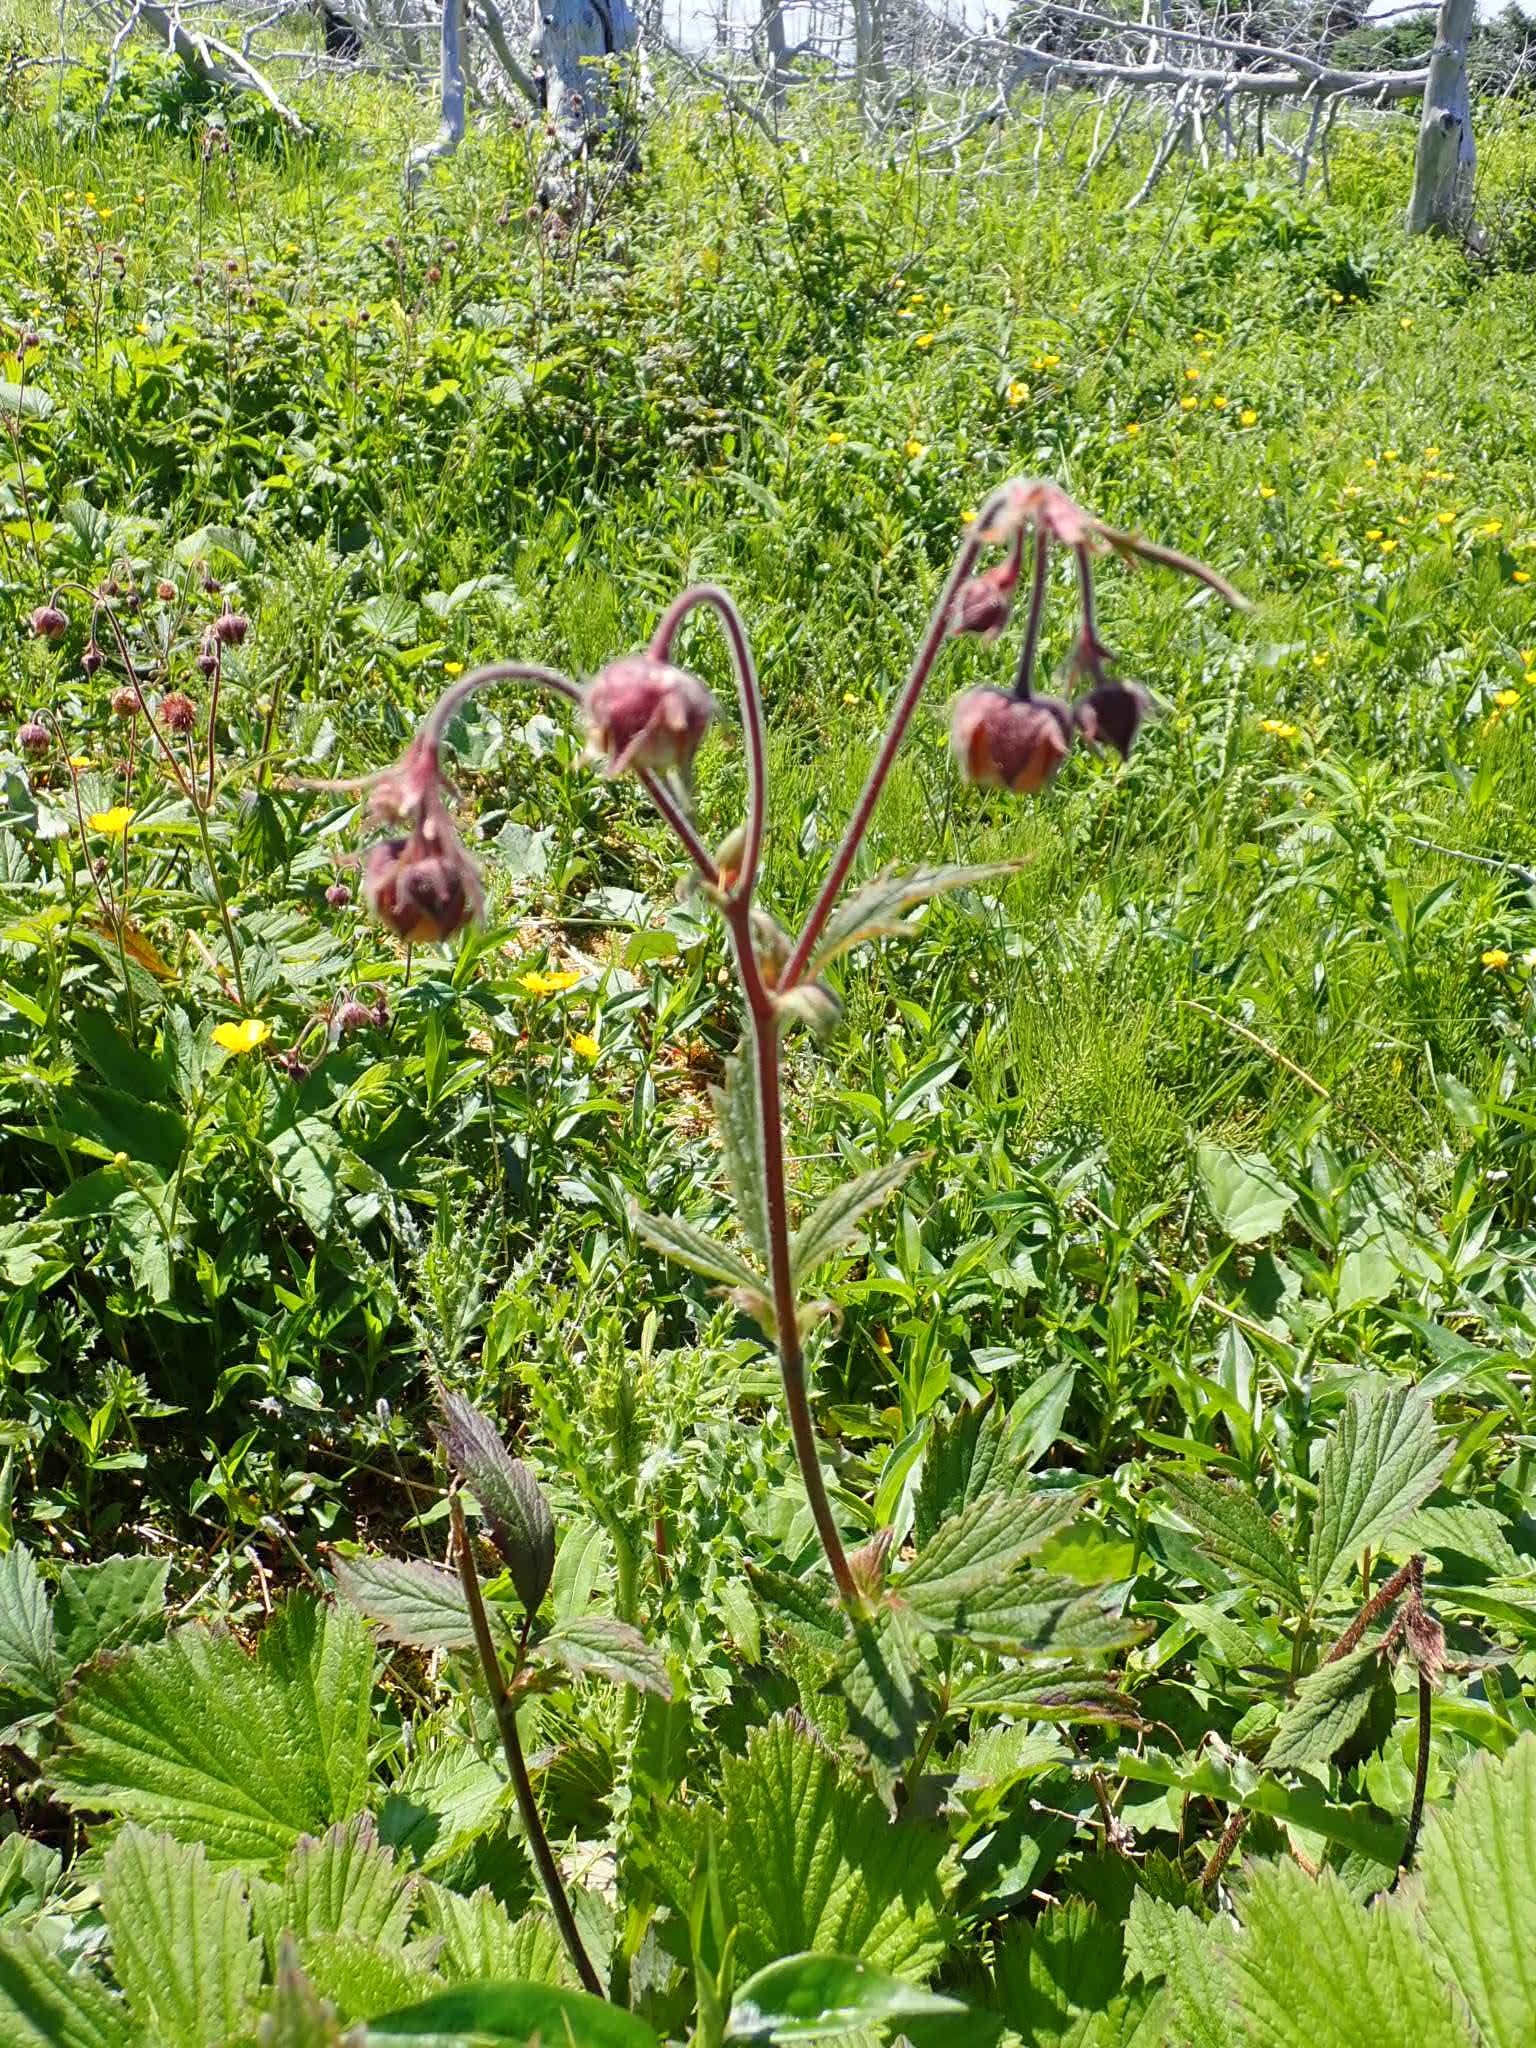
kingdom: Plantae
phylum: Tracheophyta
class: Magnoliopsida
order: Rosales
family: Rosaceae
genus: Geum
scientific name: Geum rivale
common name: Water avens
